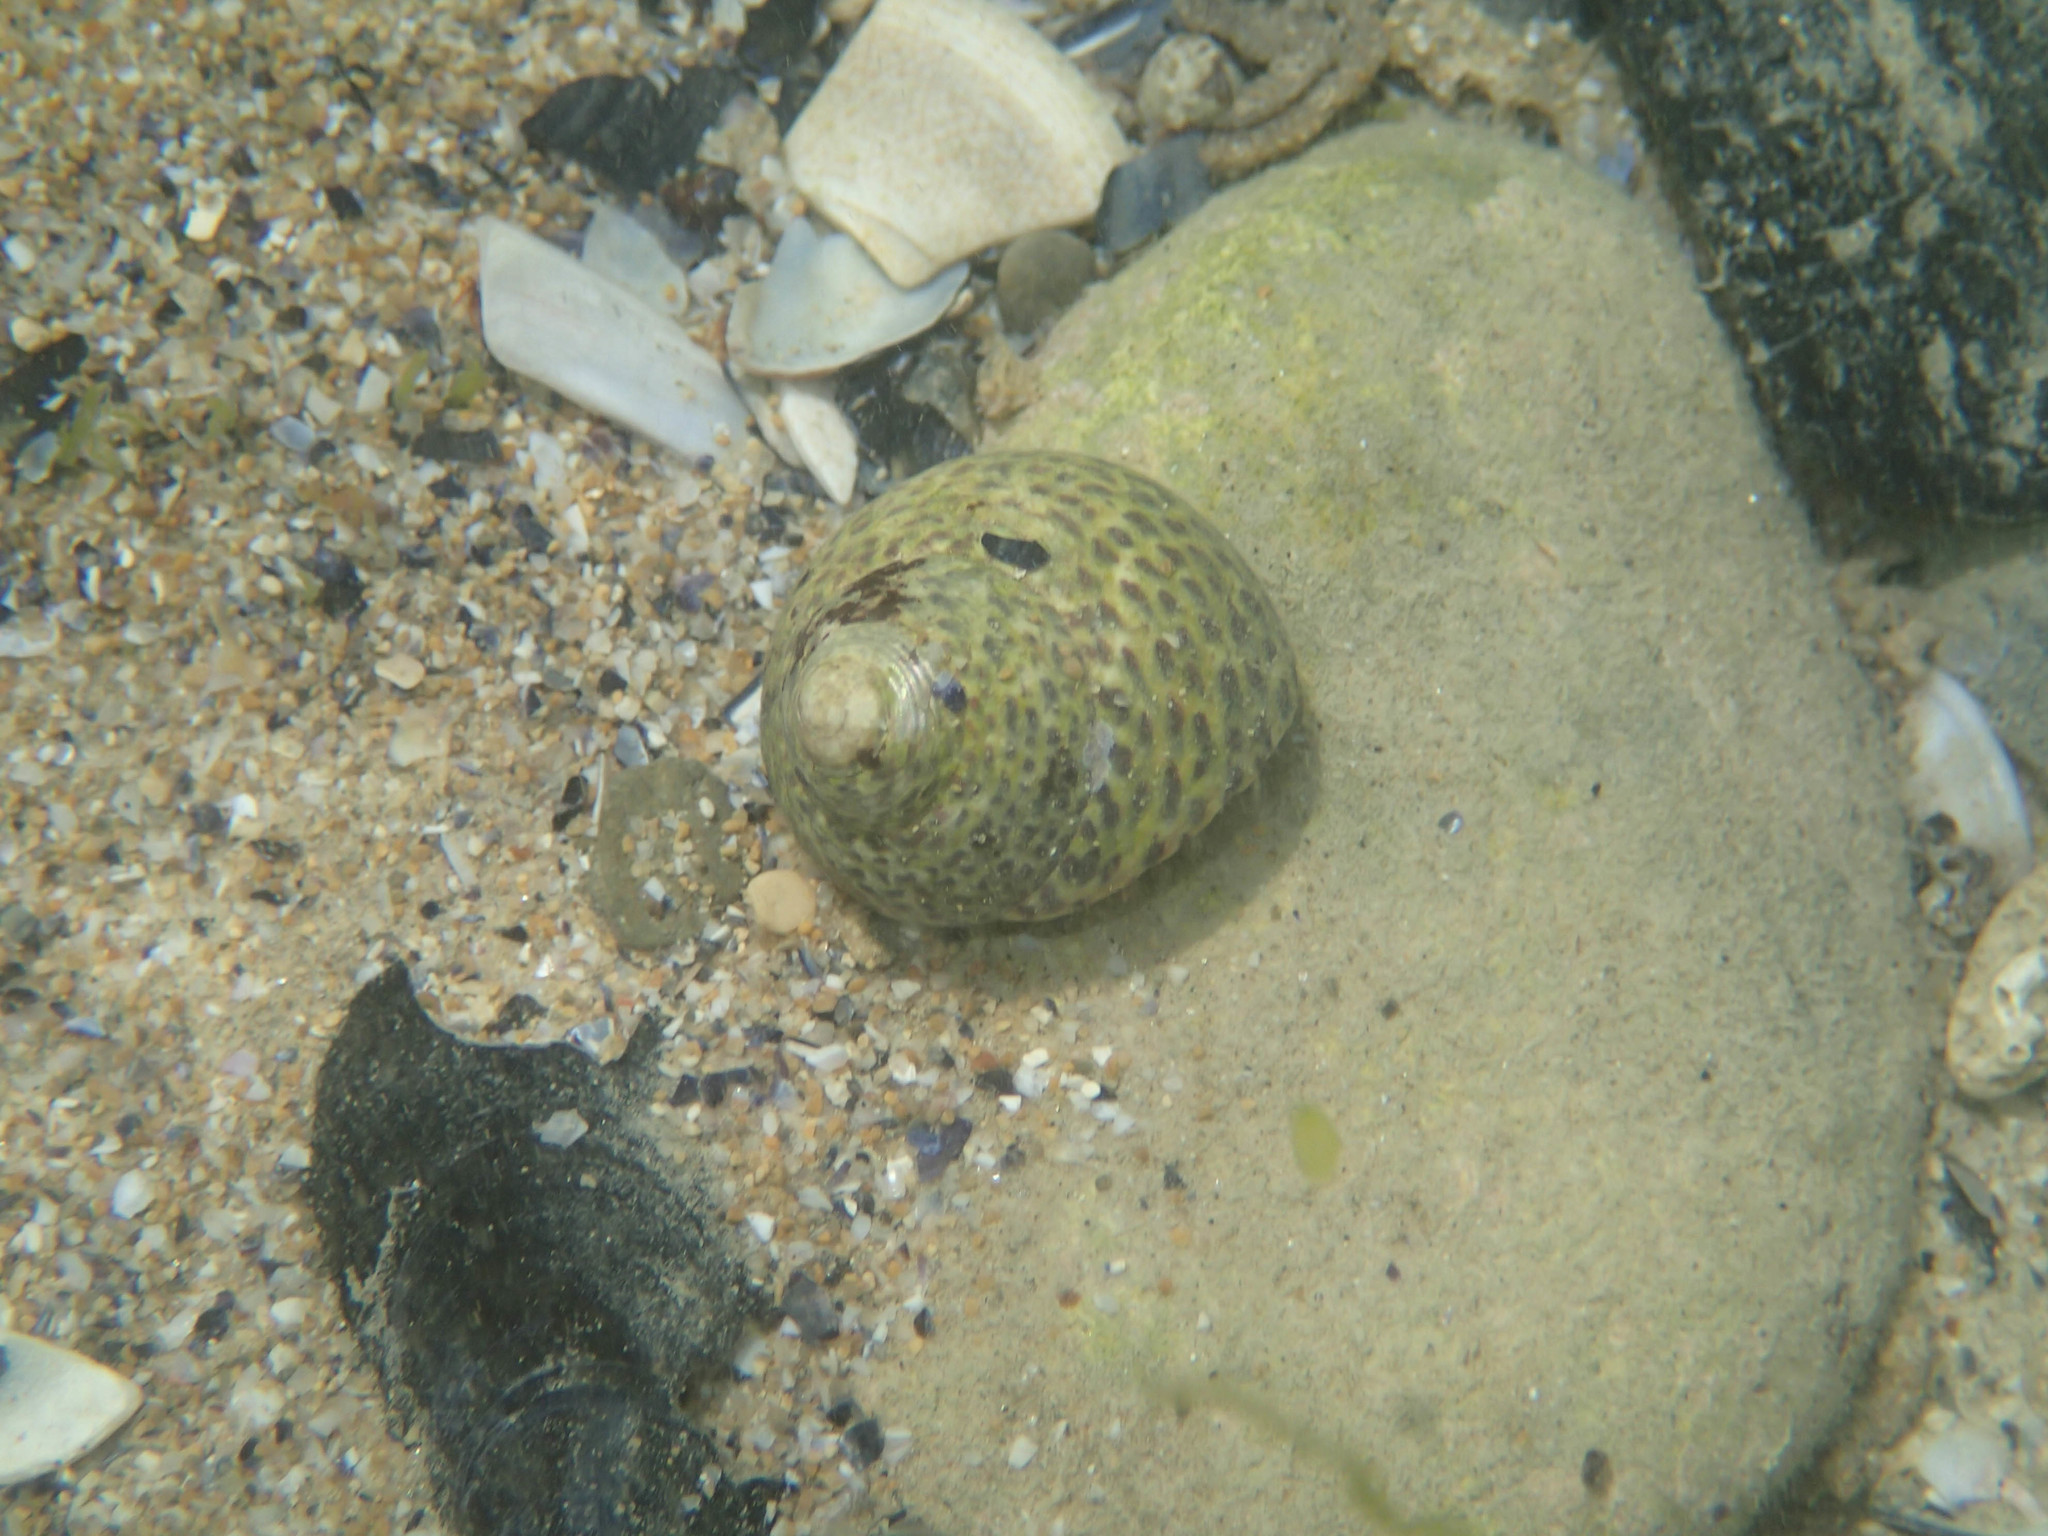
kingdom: Animalia
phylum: Mollusca
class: Gastropoda
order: Trochida
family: Trochidae
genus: Phorcus
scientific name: Phorcus turbinatus
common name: Turbinate monodont
